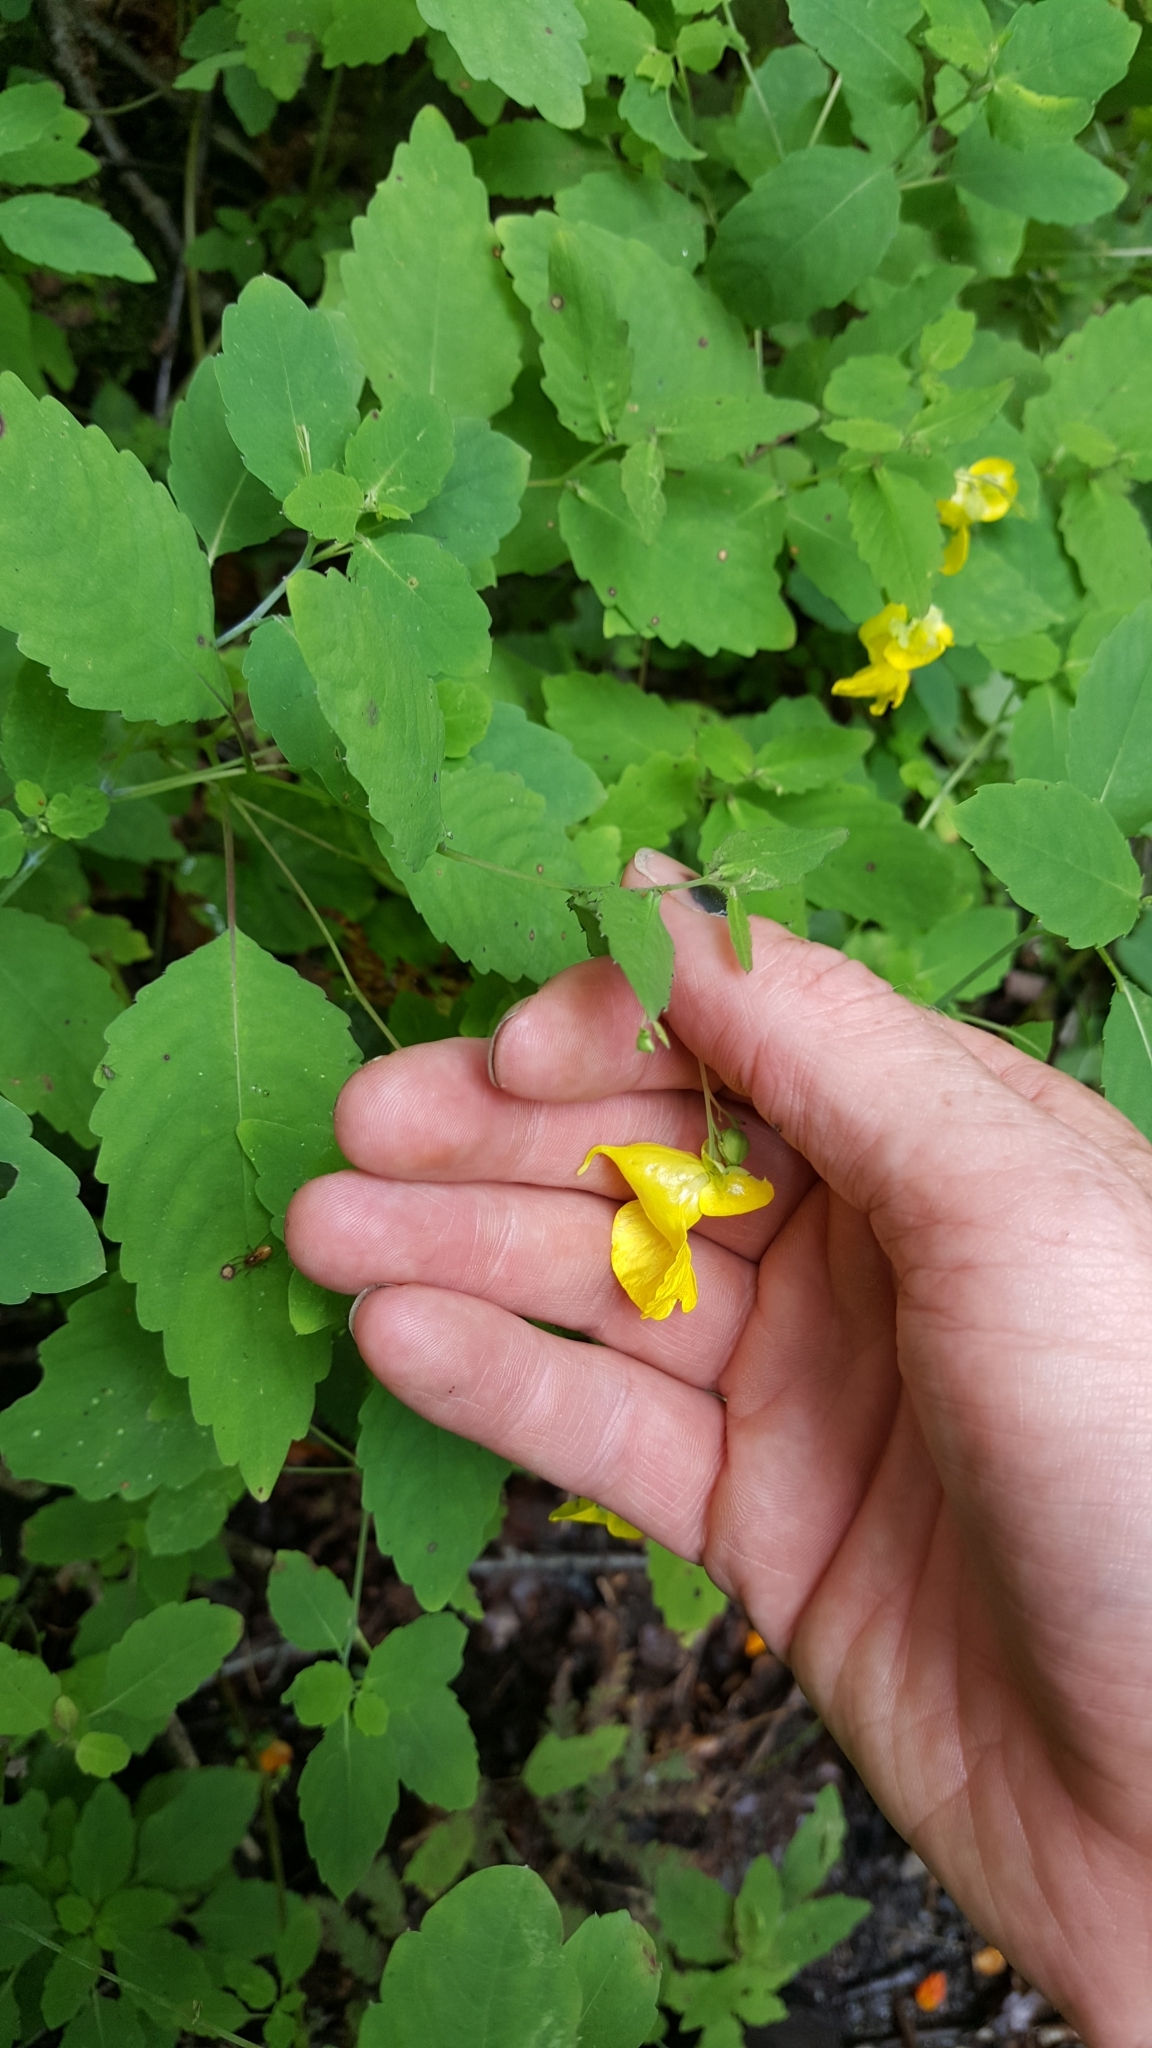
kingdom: Plantae
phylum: Tracheophyta
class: Magnoliopsida
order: Ericales
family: Balsaminaceae
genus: Impatiens
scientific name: Impatiens pallida
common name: Pale snapweed
